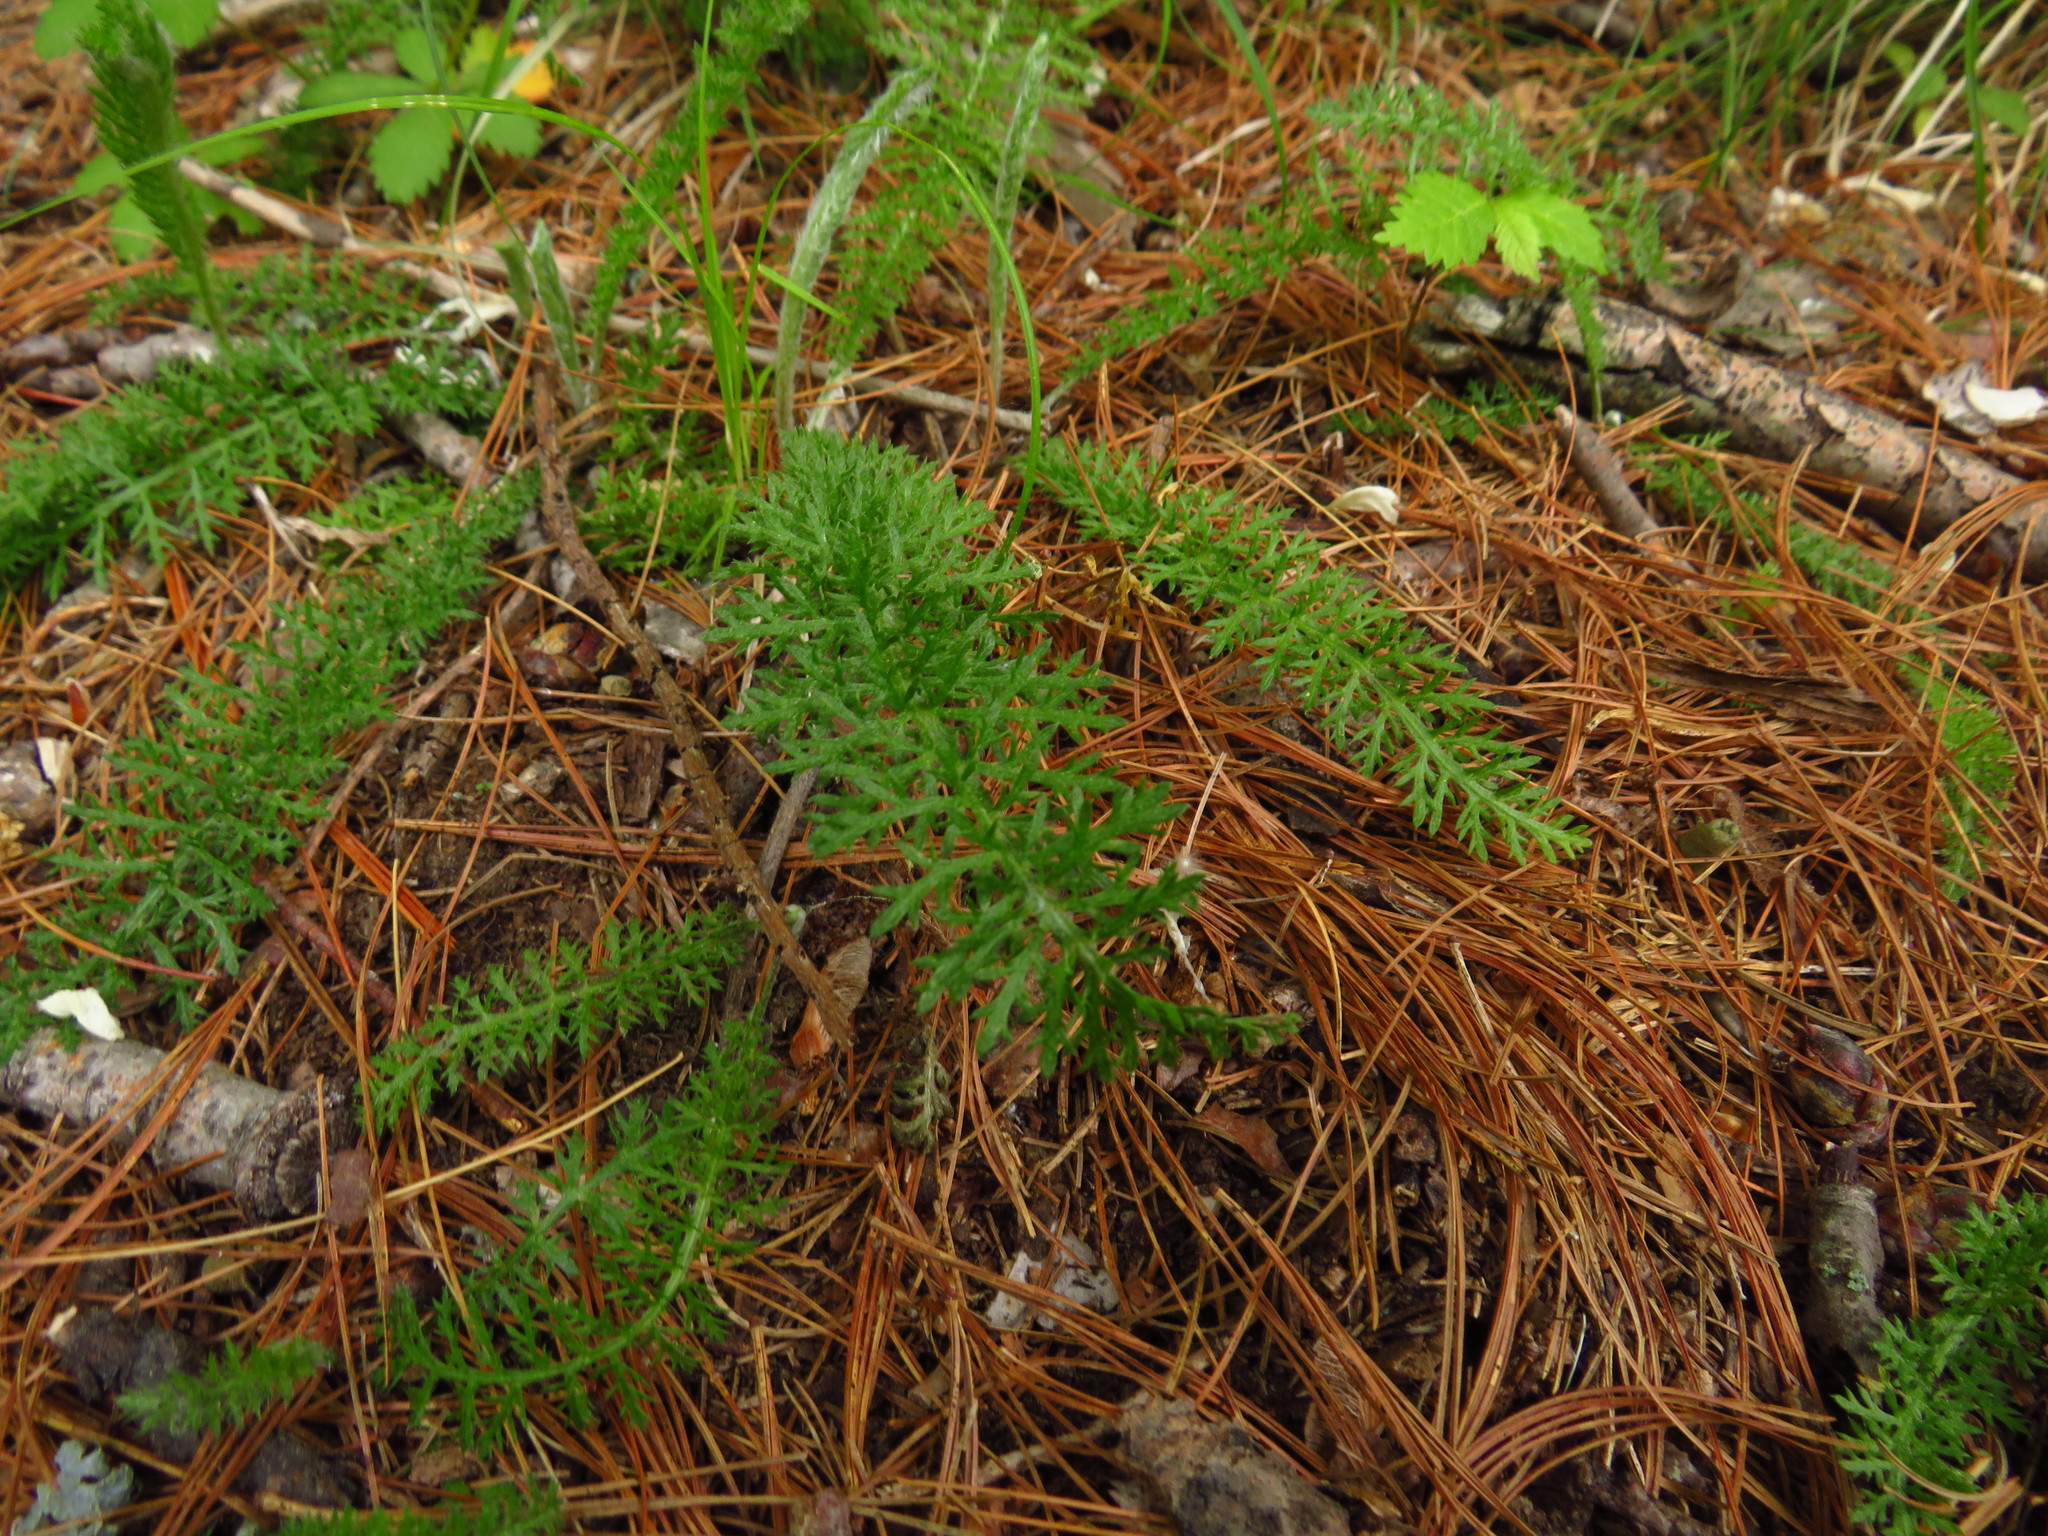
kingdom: Plantae
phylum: Tracheophyta
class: Magnoliopsida
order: Asterales
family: Asteraceae
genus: Achillea
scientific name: Achillea millefolium
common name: Yarrow
